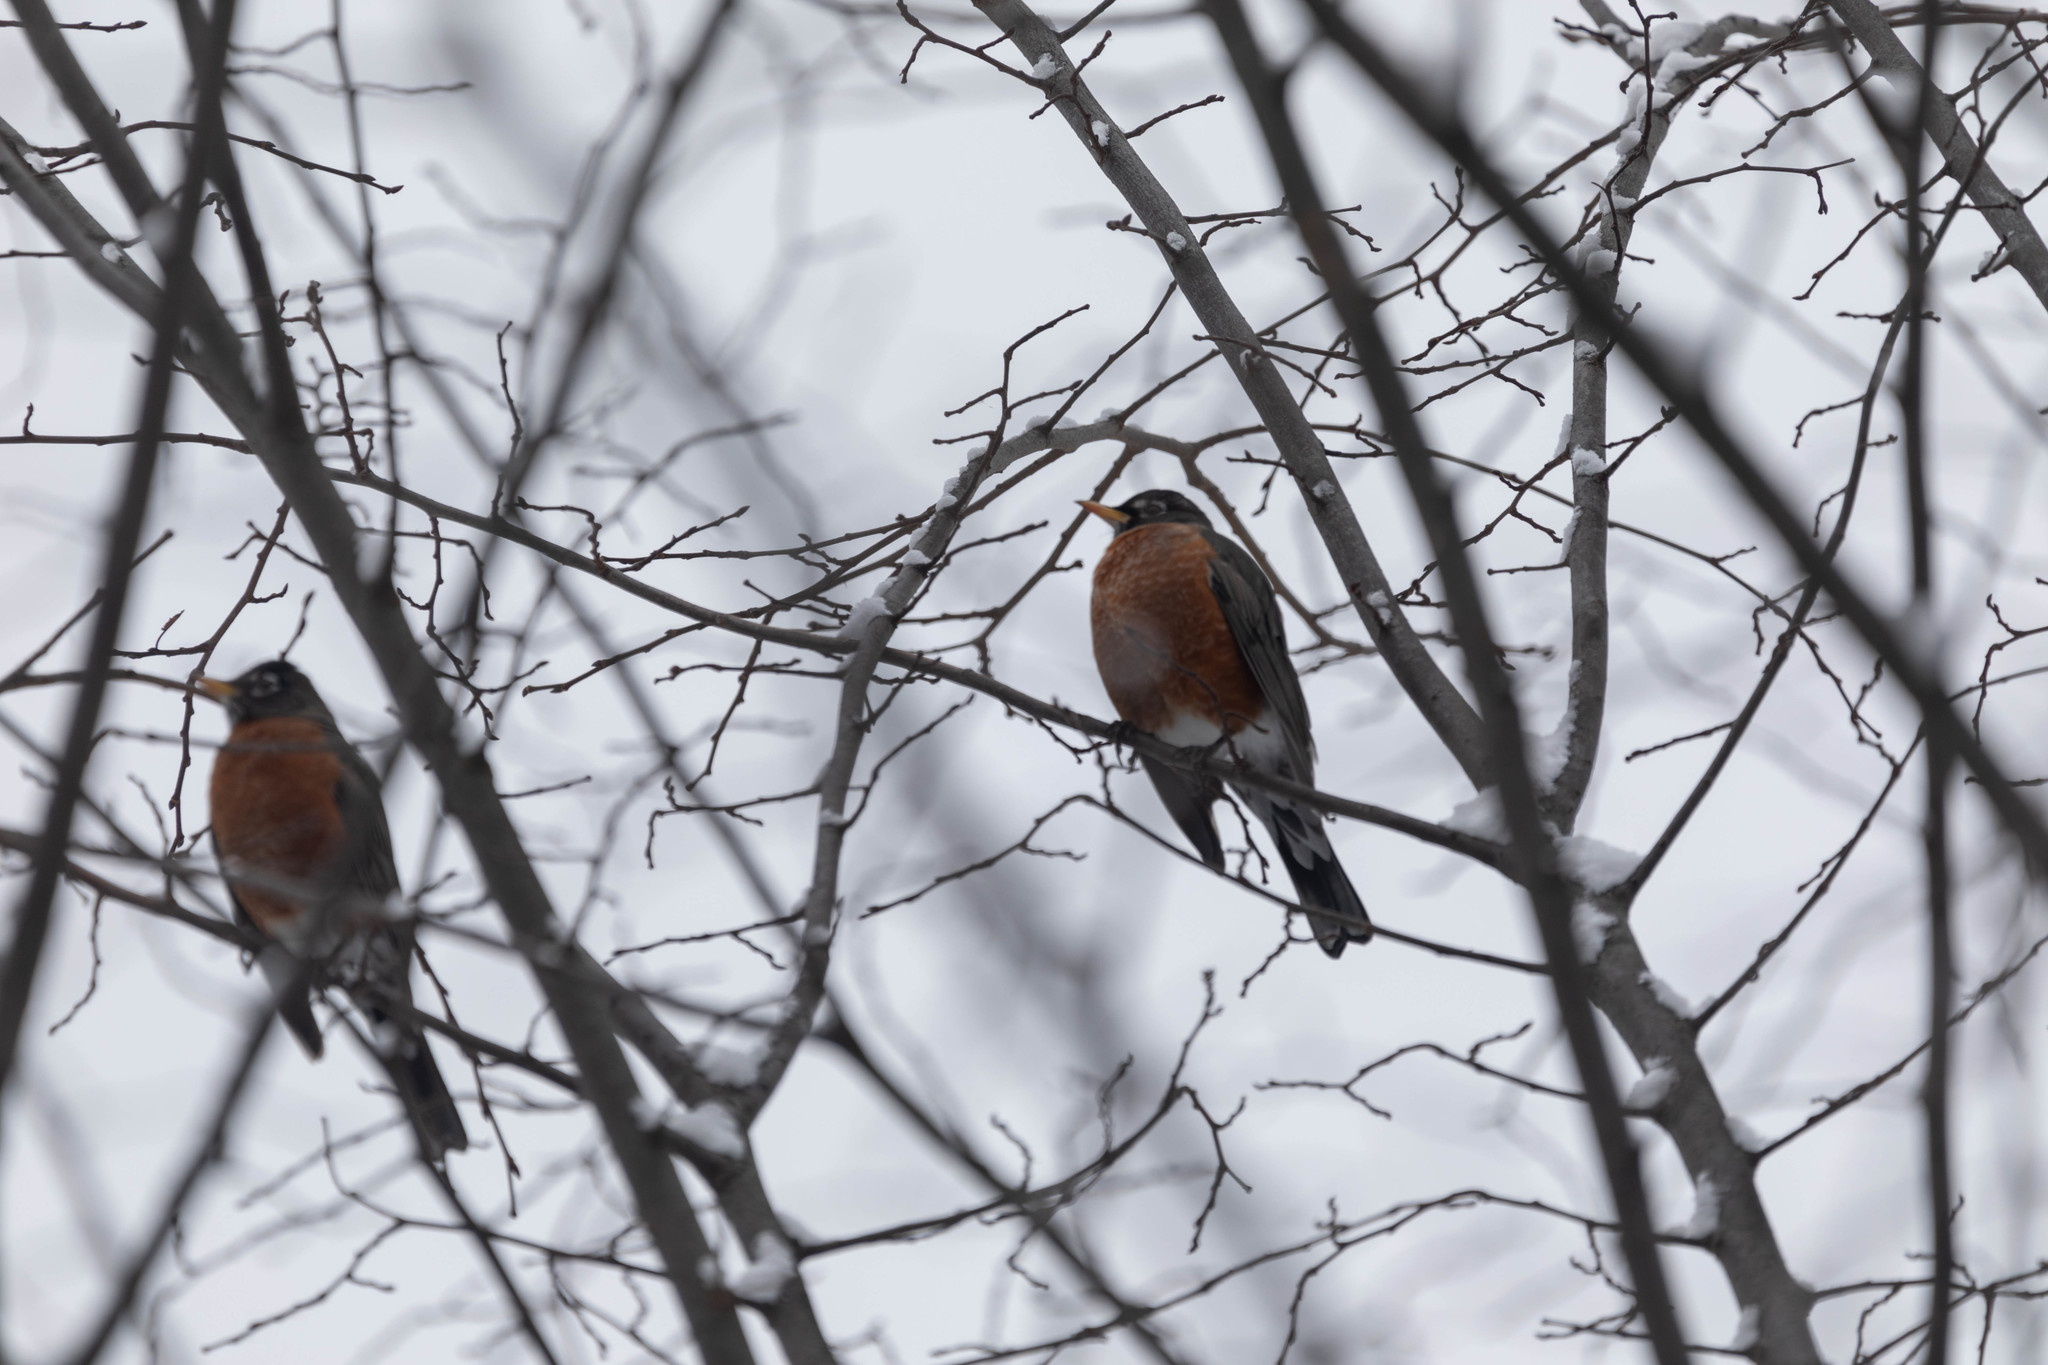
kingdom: Animalia
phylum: Chordata
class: Aves
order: Passeriformes
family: Turdidae
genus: Turdus
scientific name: Turdus migratorius
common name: American robin
